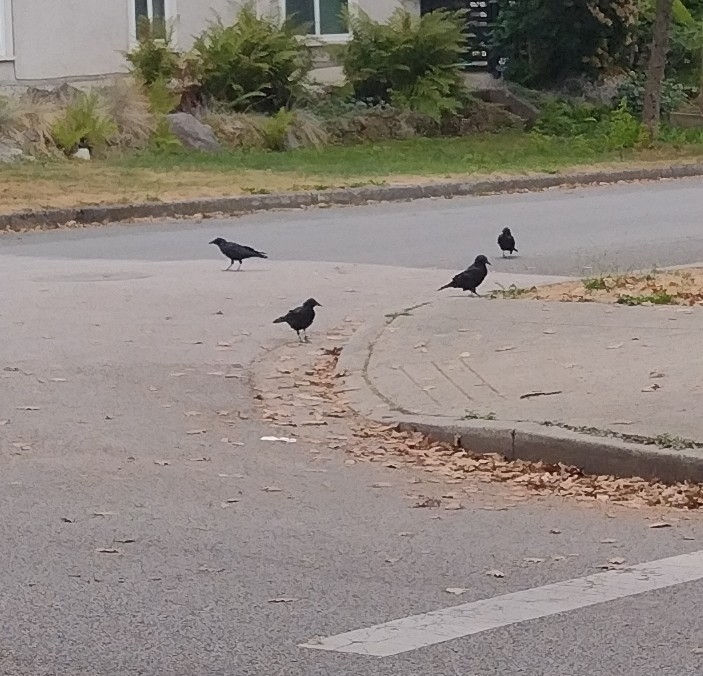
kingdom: Animalia
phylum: Chordata
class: Aves
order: Passeriformes
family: Corvidae
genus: Corvus
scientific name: Corvus brachyrhynchos
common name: American crow
